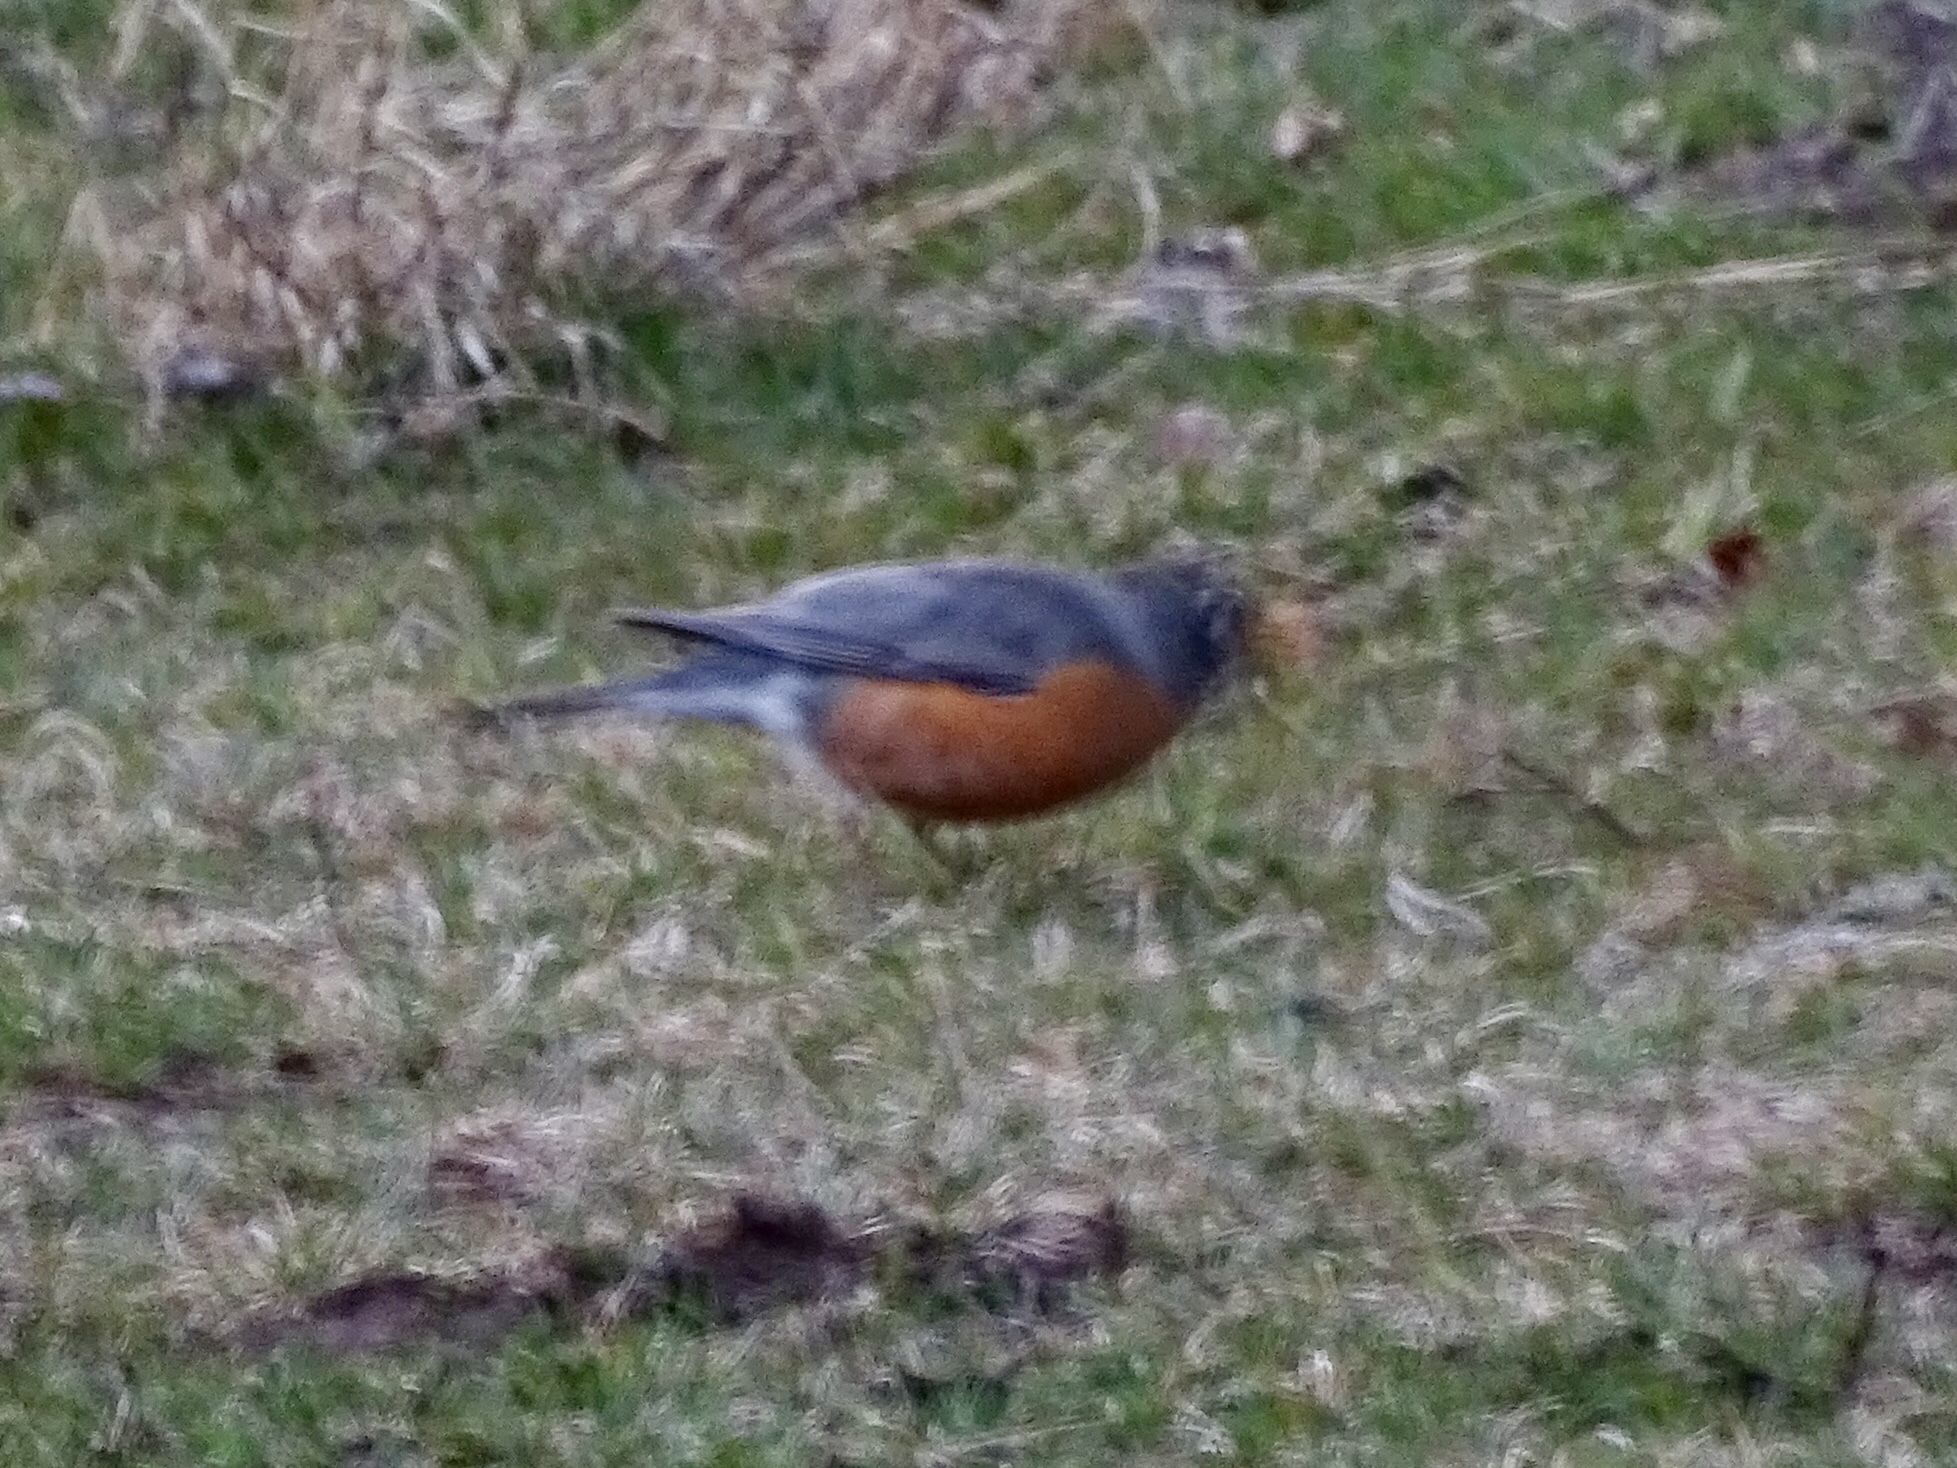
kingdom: Animalia
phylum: Chordata
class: Aves
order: Passeriformes
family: Turdidae
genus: Turdus
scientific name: Turdus migratorius
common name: American robin
